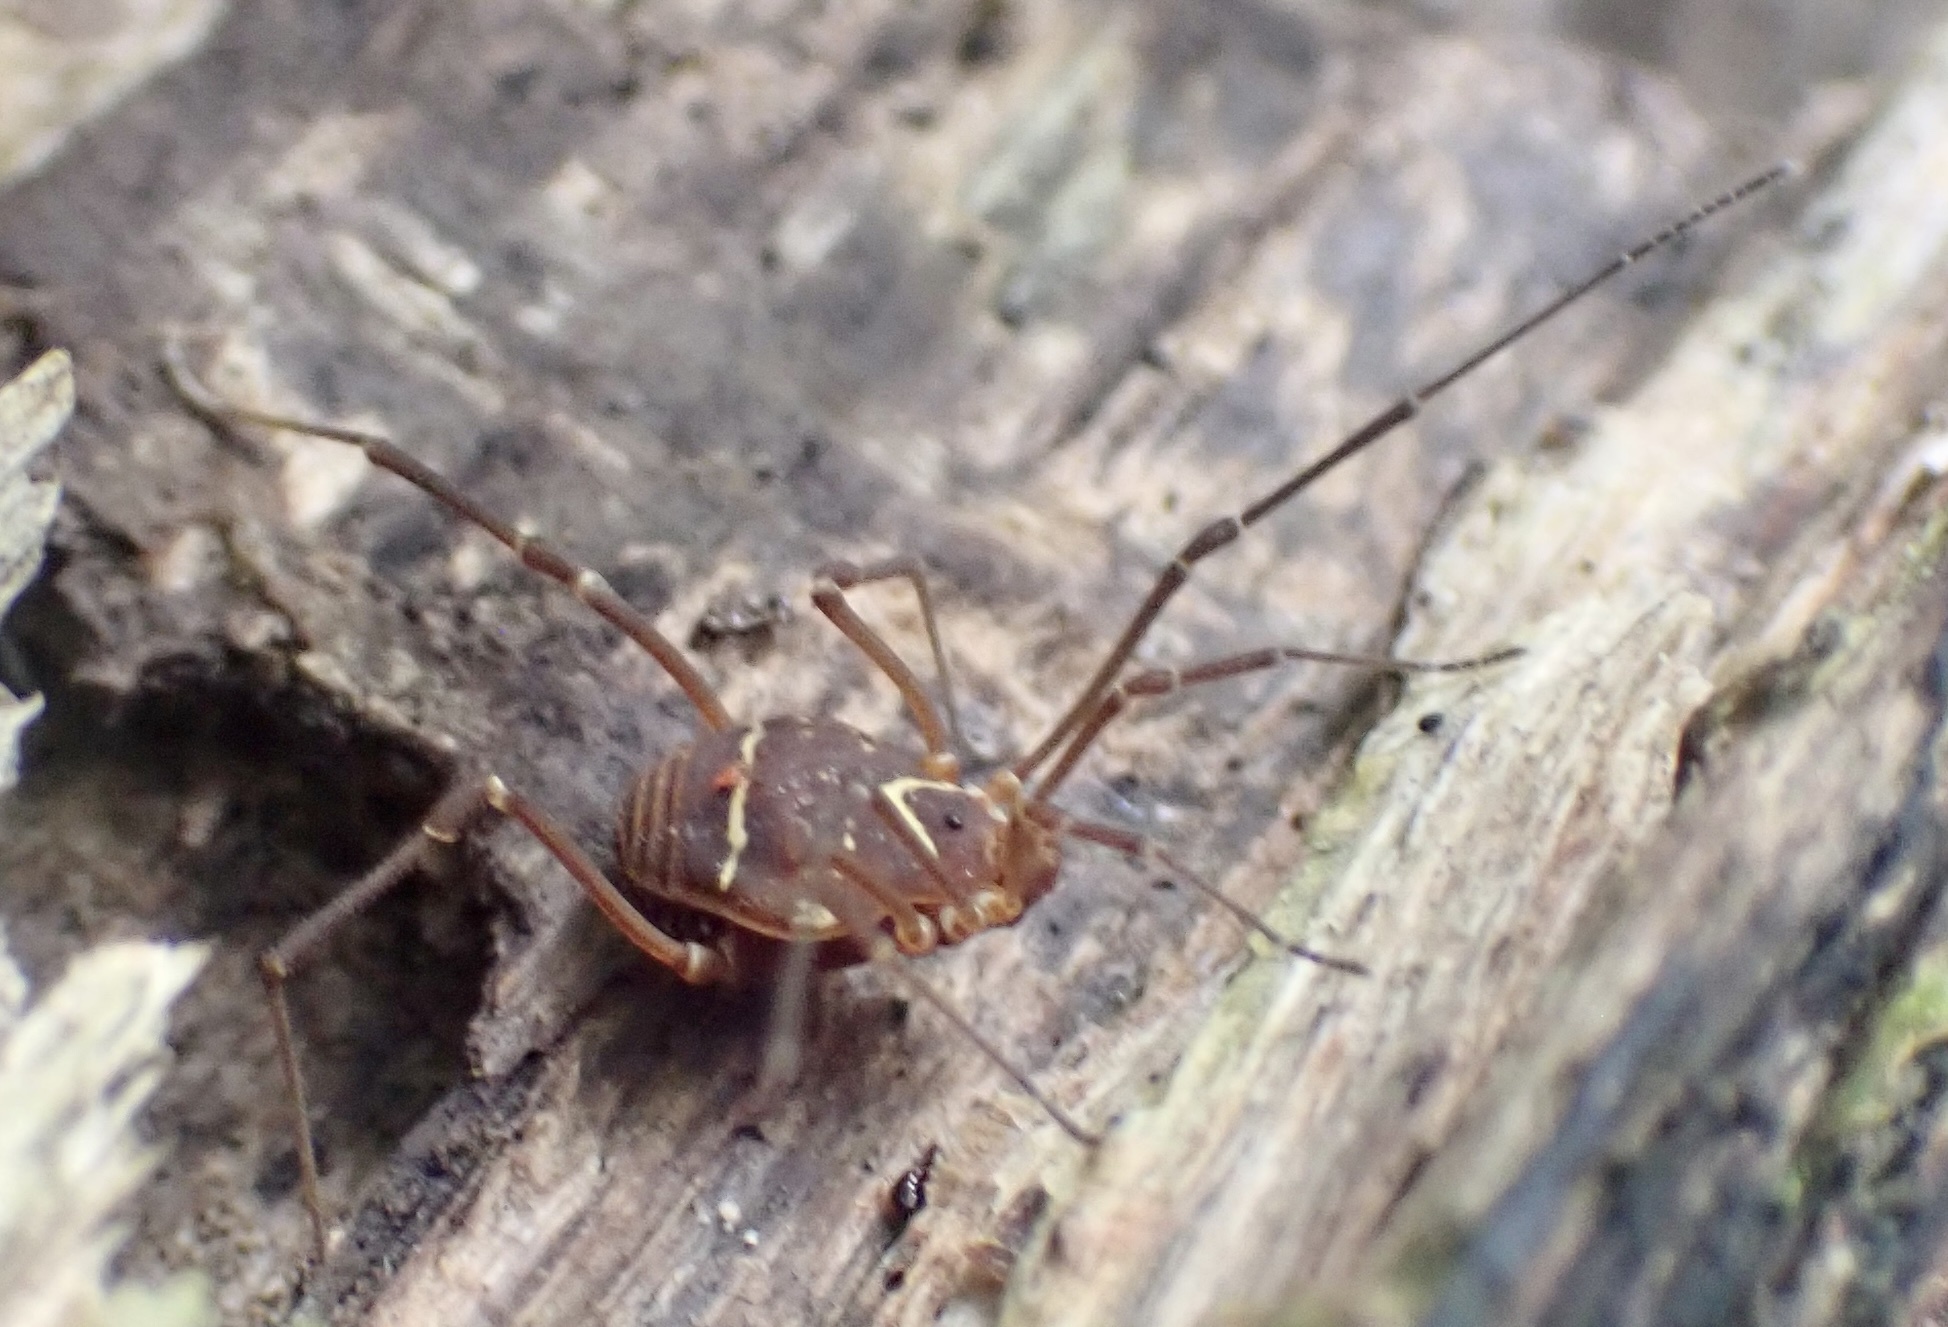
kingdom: Animalia
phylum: Arthropoda
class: Arachnida
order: Opiliones
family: Cosmetidae
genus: Libitioides
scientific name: Libitioides sayi
